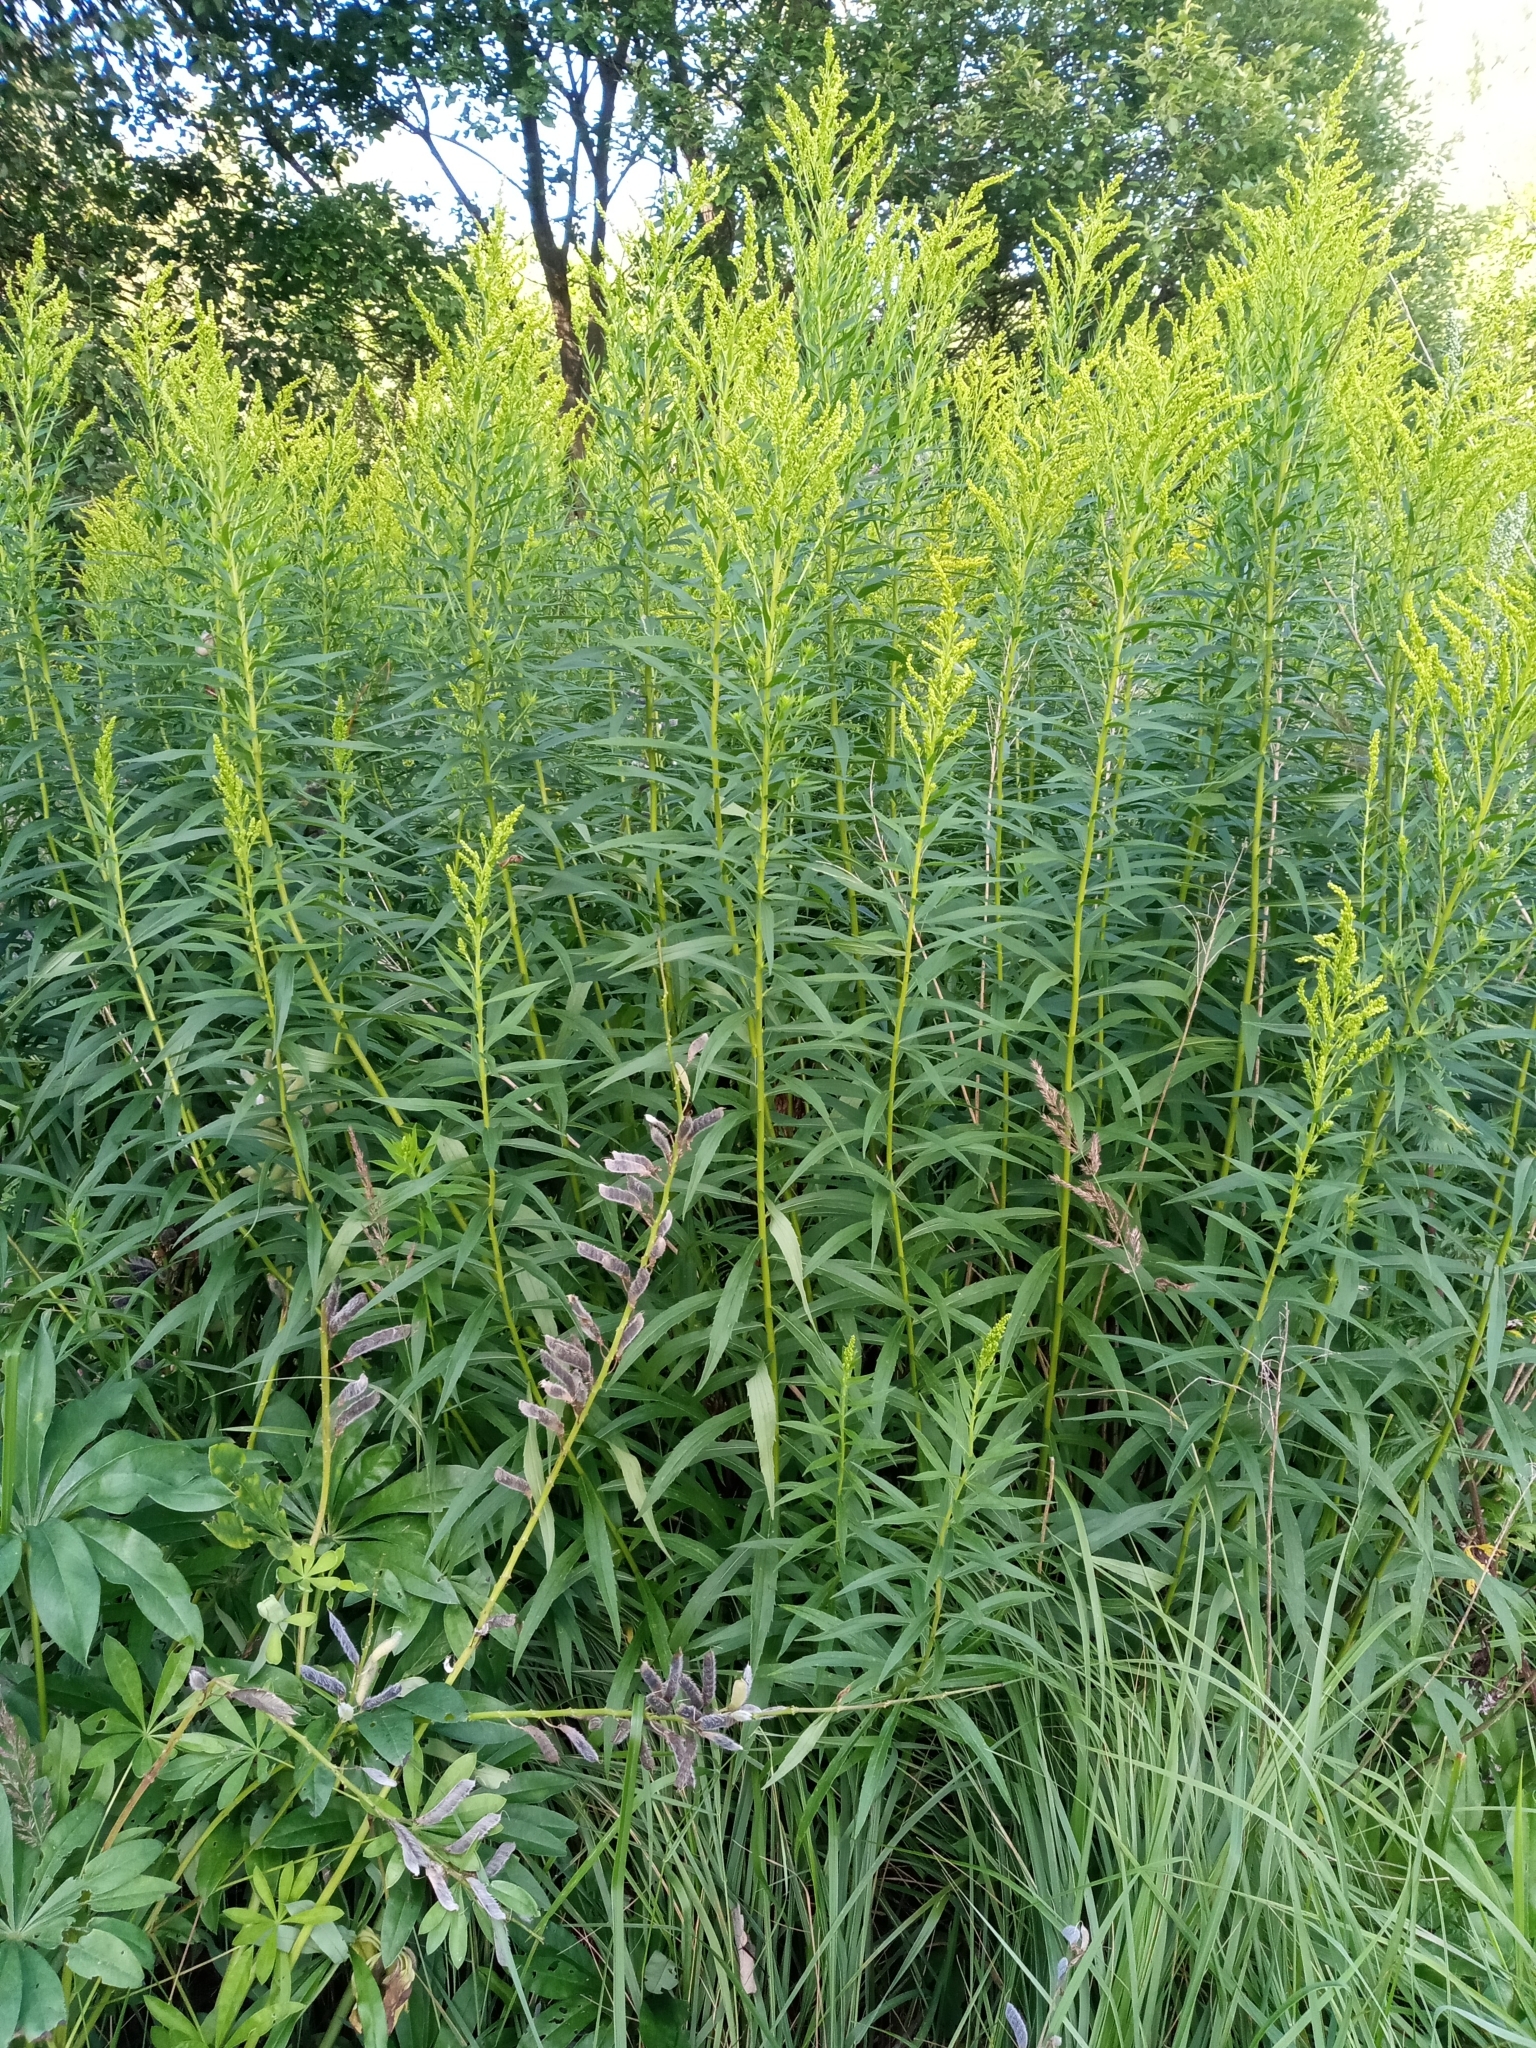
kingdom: Plantae
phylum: Tracheophyta
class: Magnoliopsida
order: Asterales
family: Asteraceae
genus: Solidago
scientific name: Solidago canadensis
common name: Canada goldenrod
